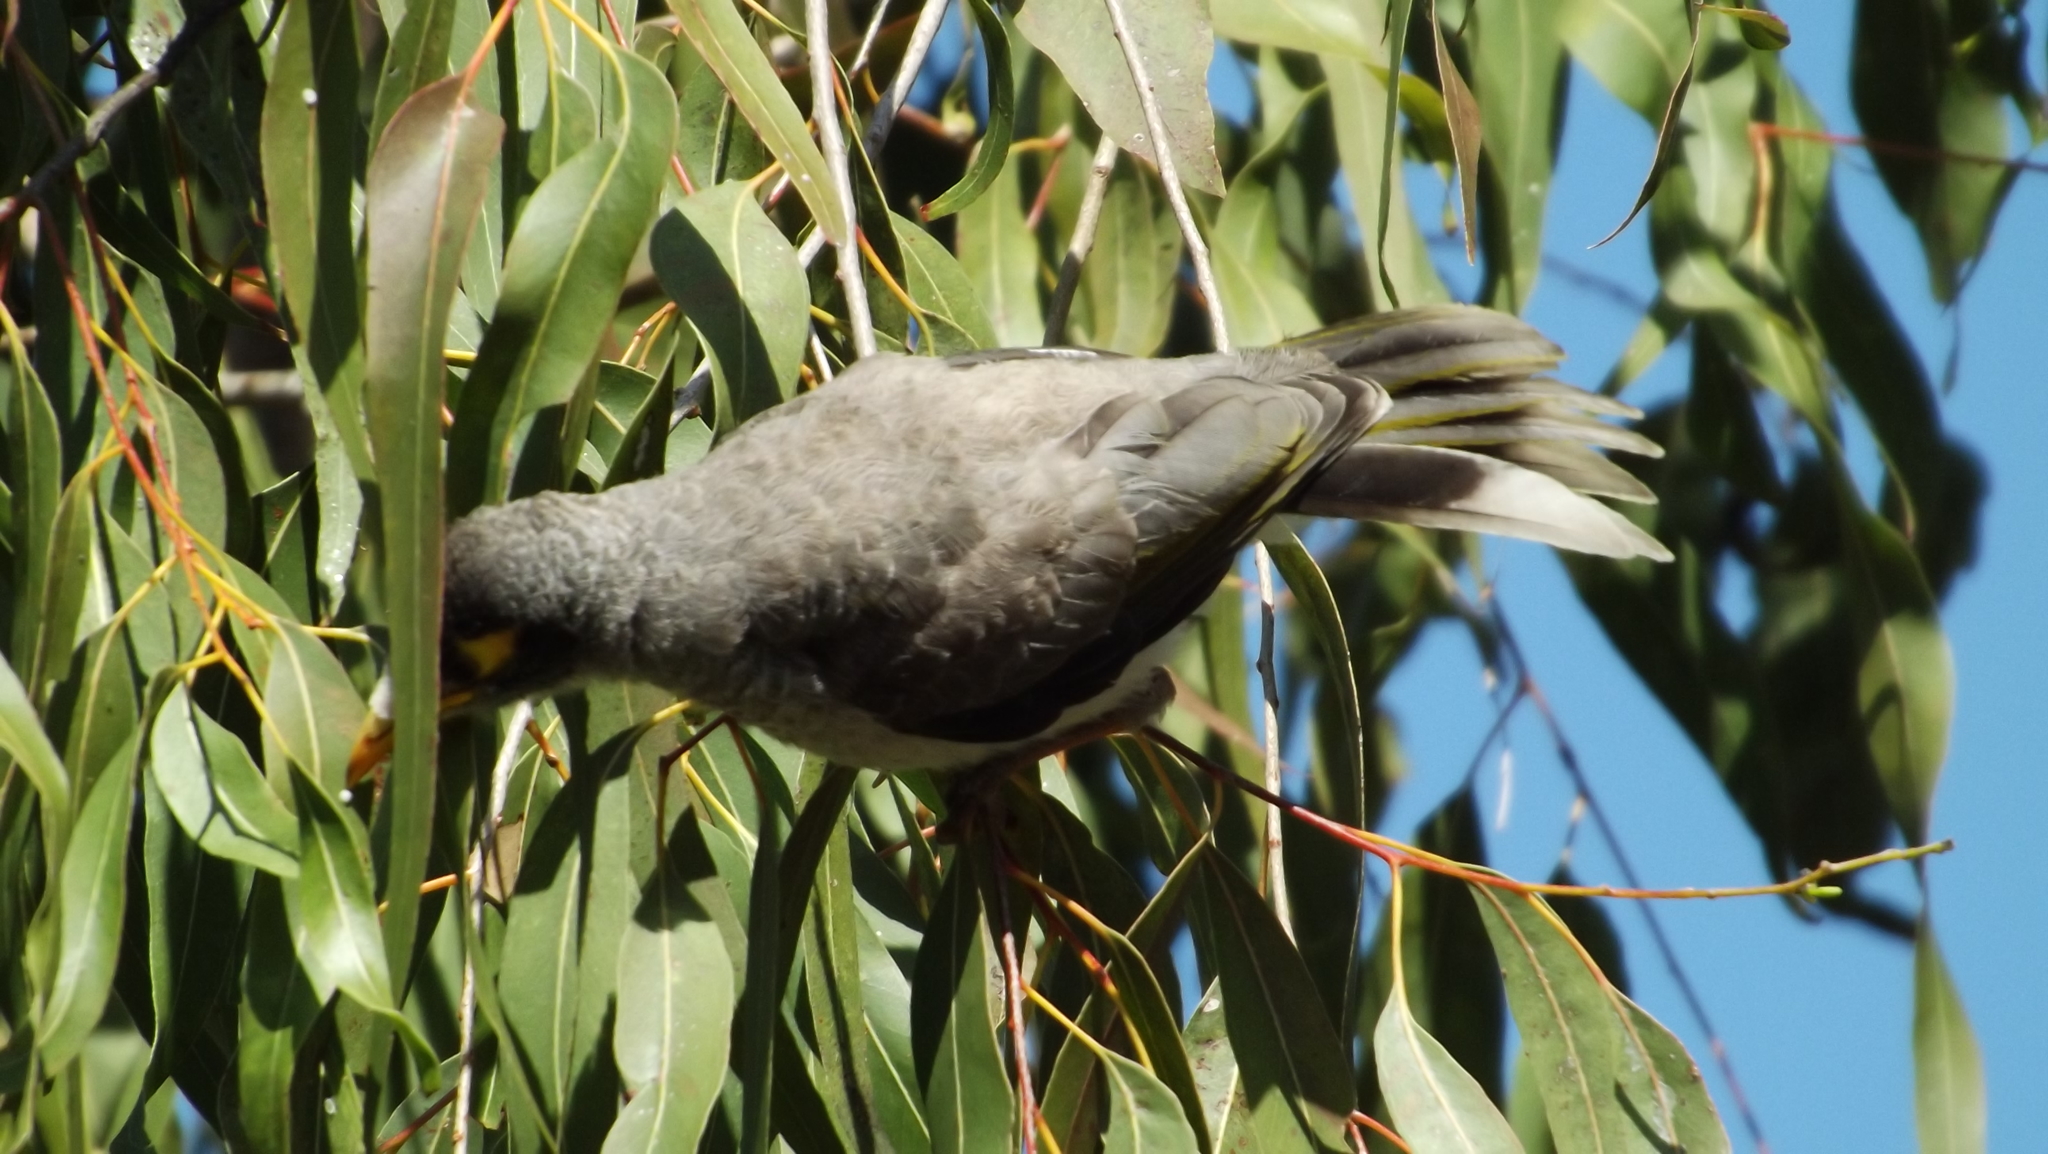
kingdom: Animalia
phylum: Chordata
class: Aves
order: Passeriformes
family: Meliphagidae
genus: Manorina
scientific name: Manorina melanocephala
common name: Noisy miner
